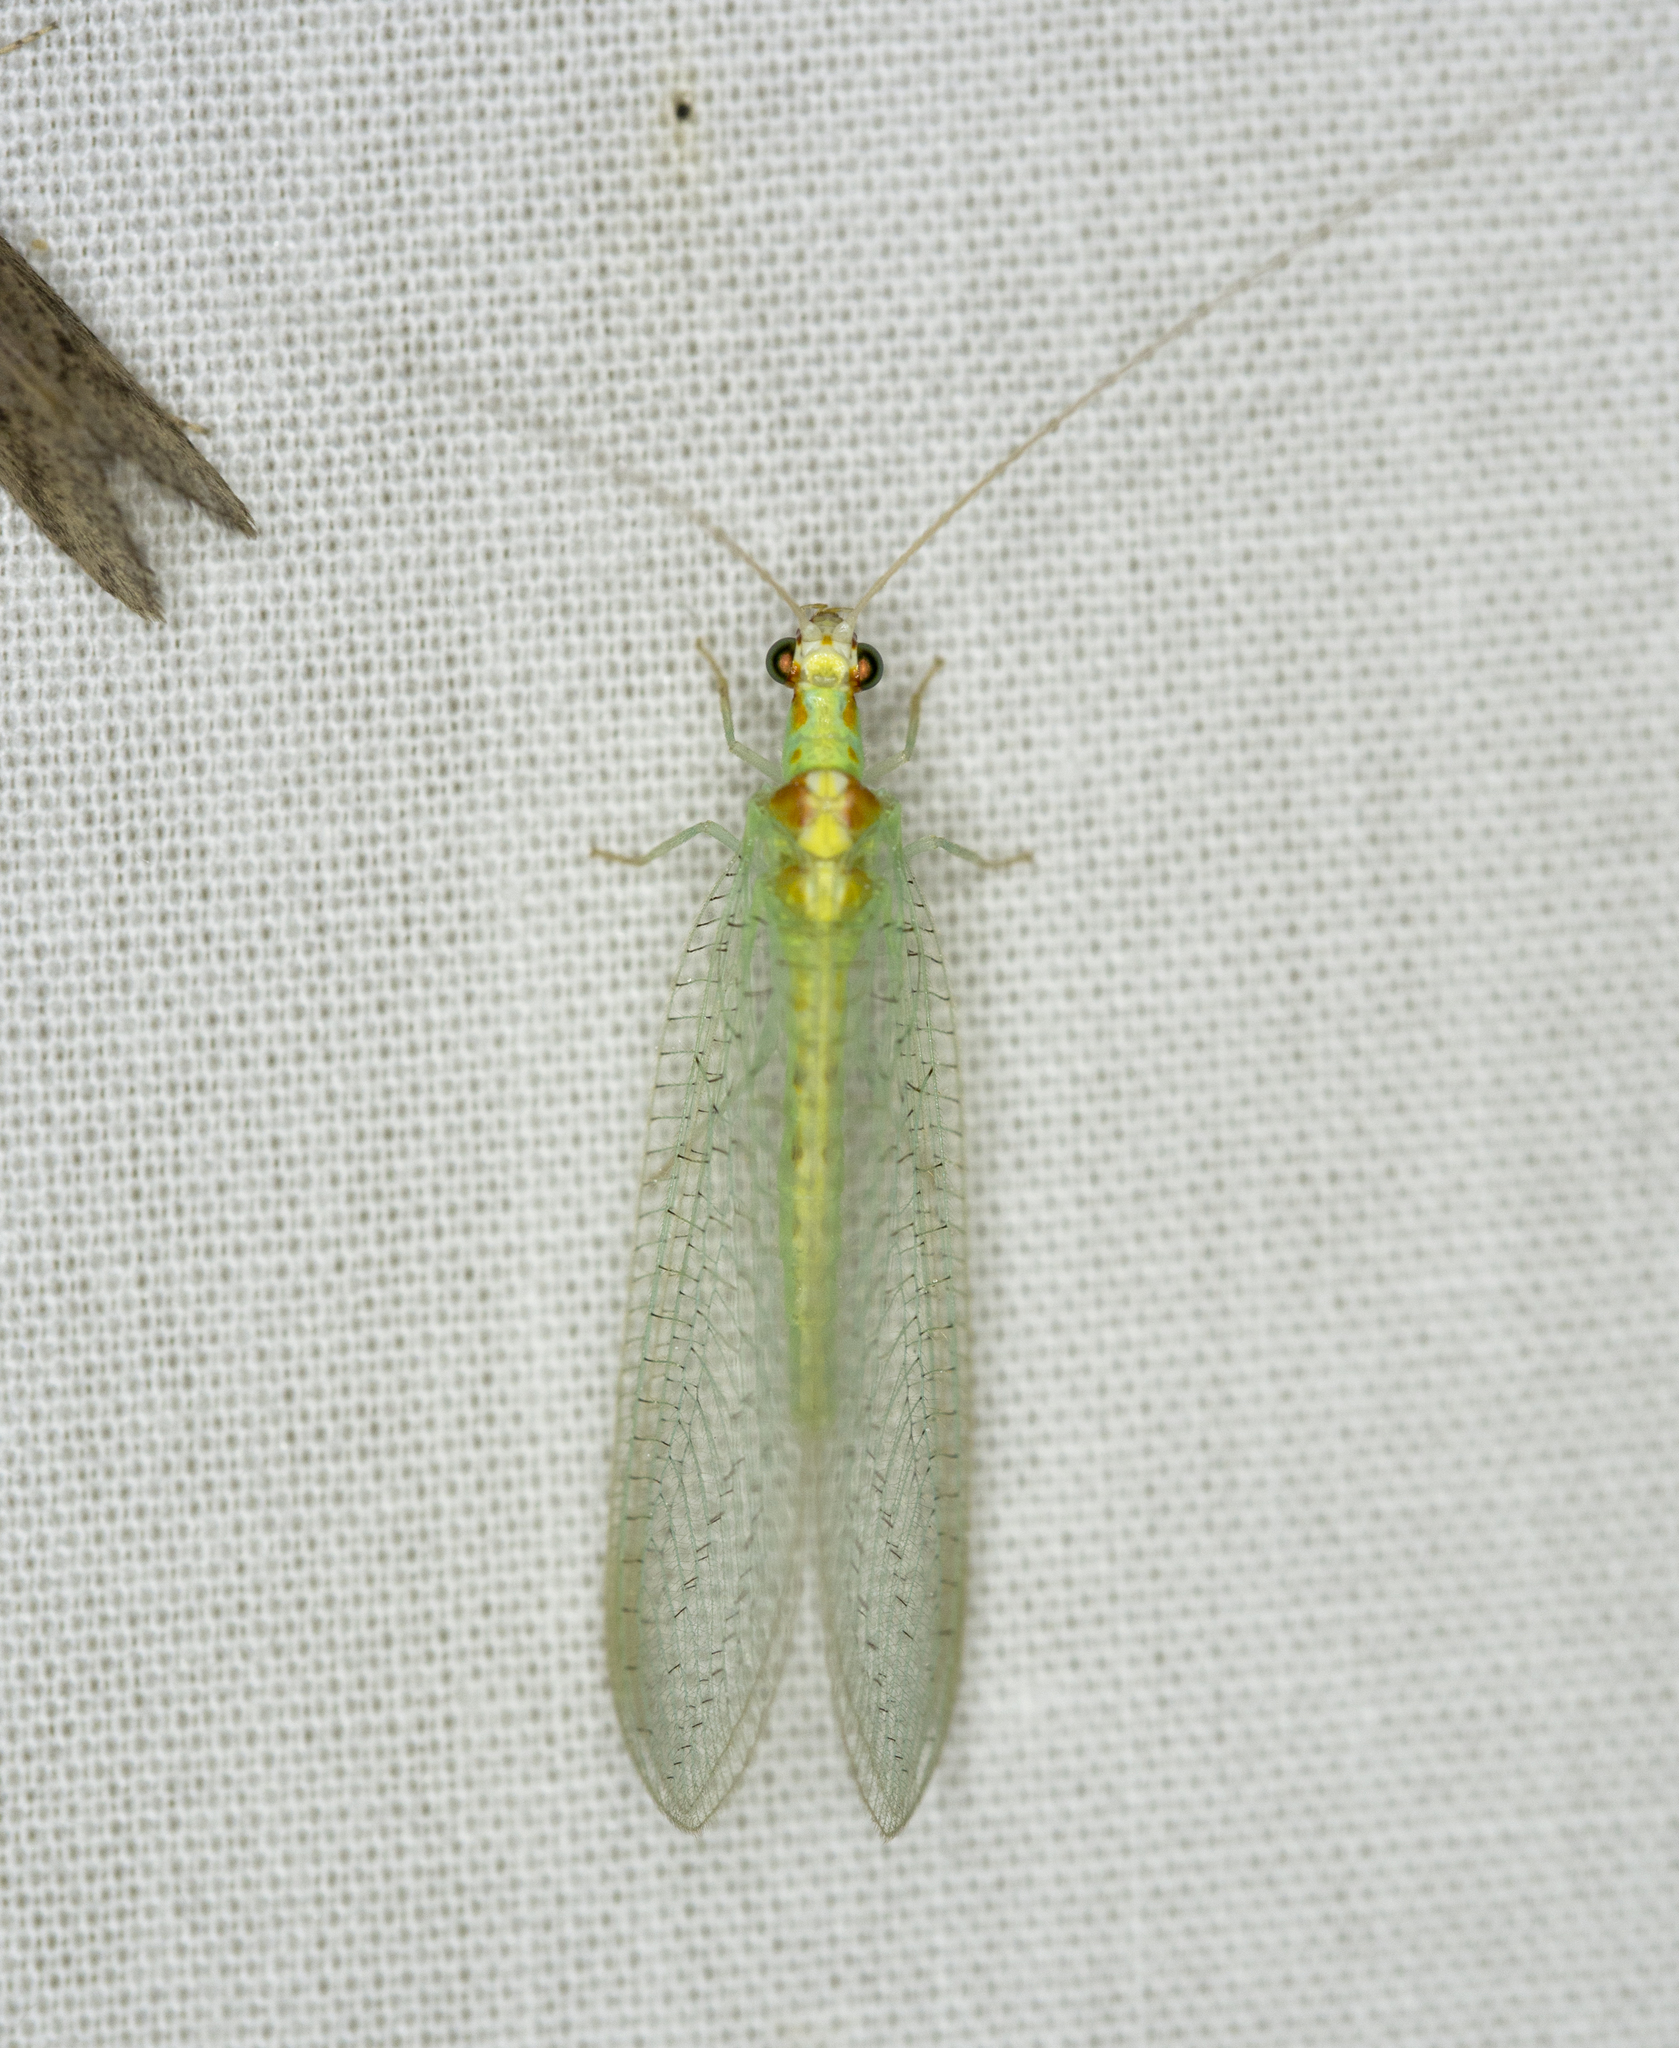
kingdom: Animalia
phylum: Arthropoda
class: Insecta
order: Neuroptera
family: Chrysopidae
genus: Chrysopa
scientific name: Chrysopa quadripunctata
